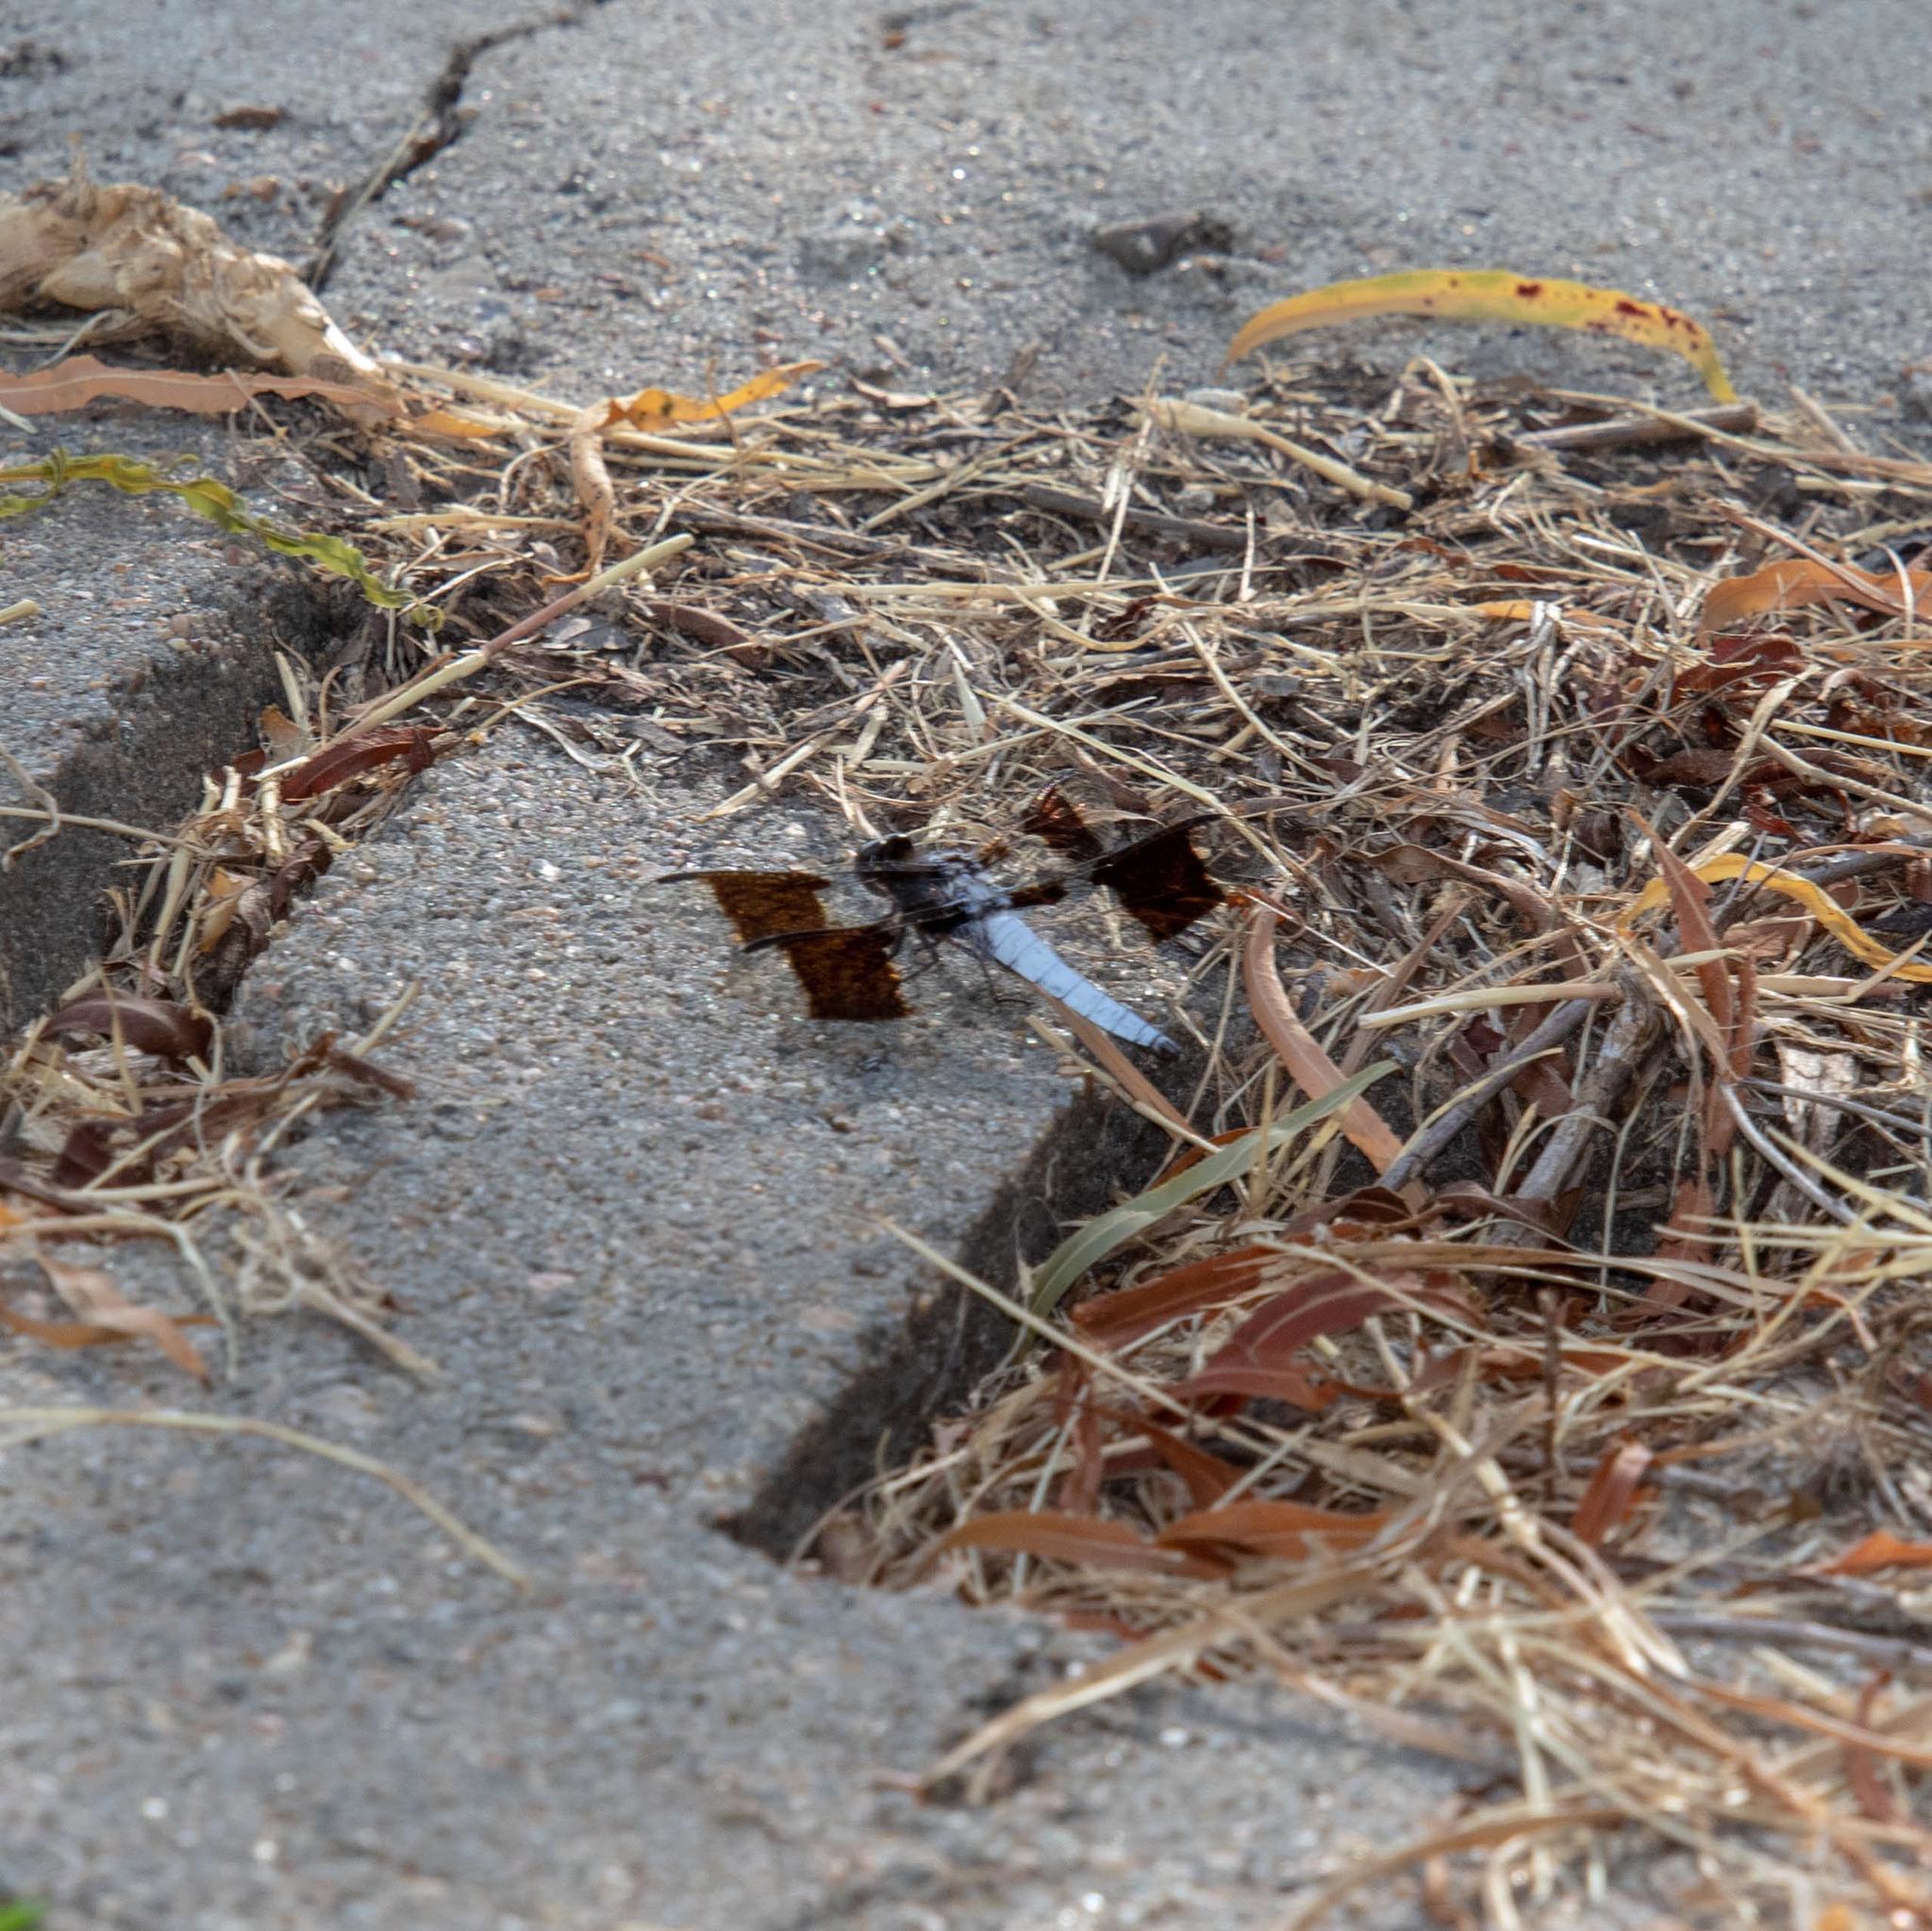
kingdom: Animalia
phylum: Arthropoda
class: Insecta
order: Odonata
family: Libellulidae
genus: Plathemis
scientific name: Plathemis lydia
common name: Common whitetail
